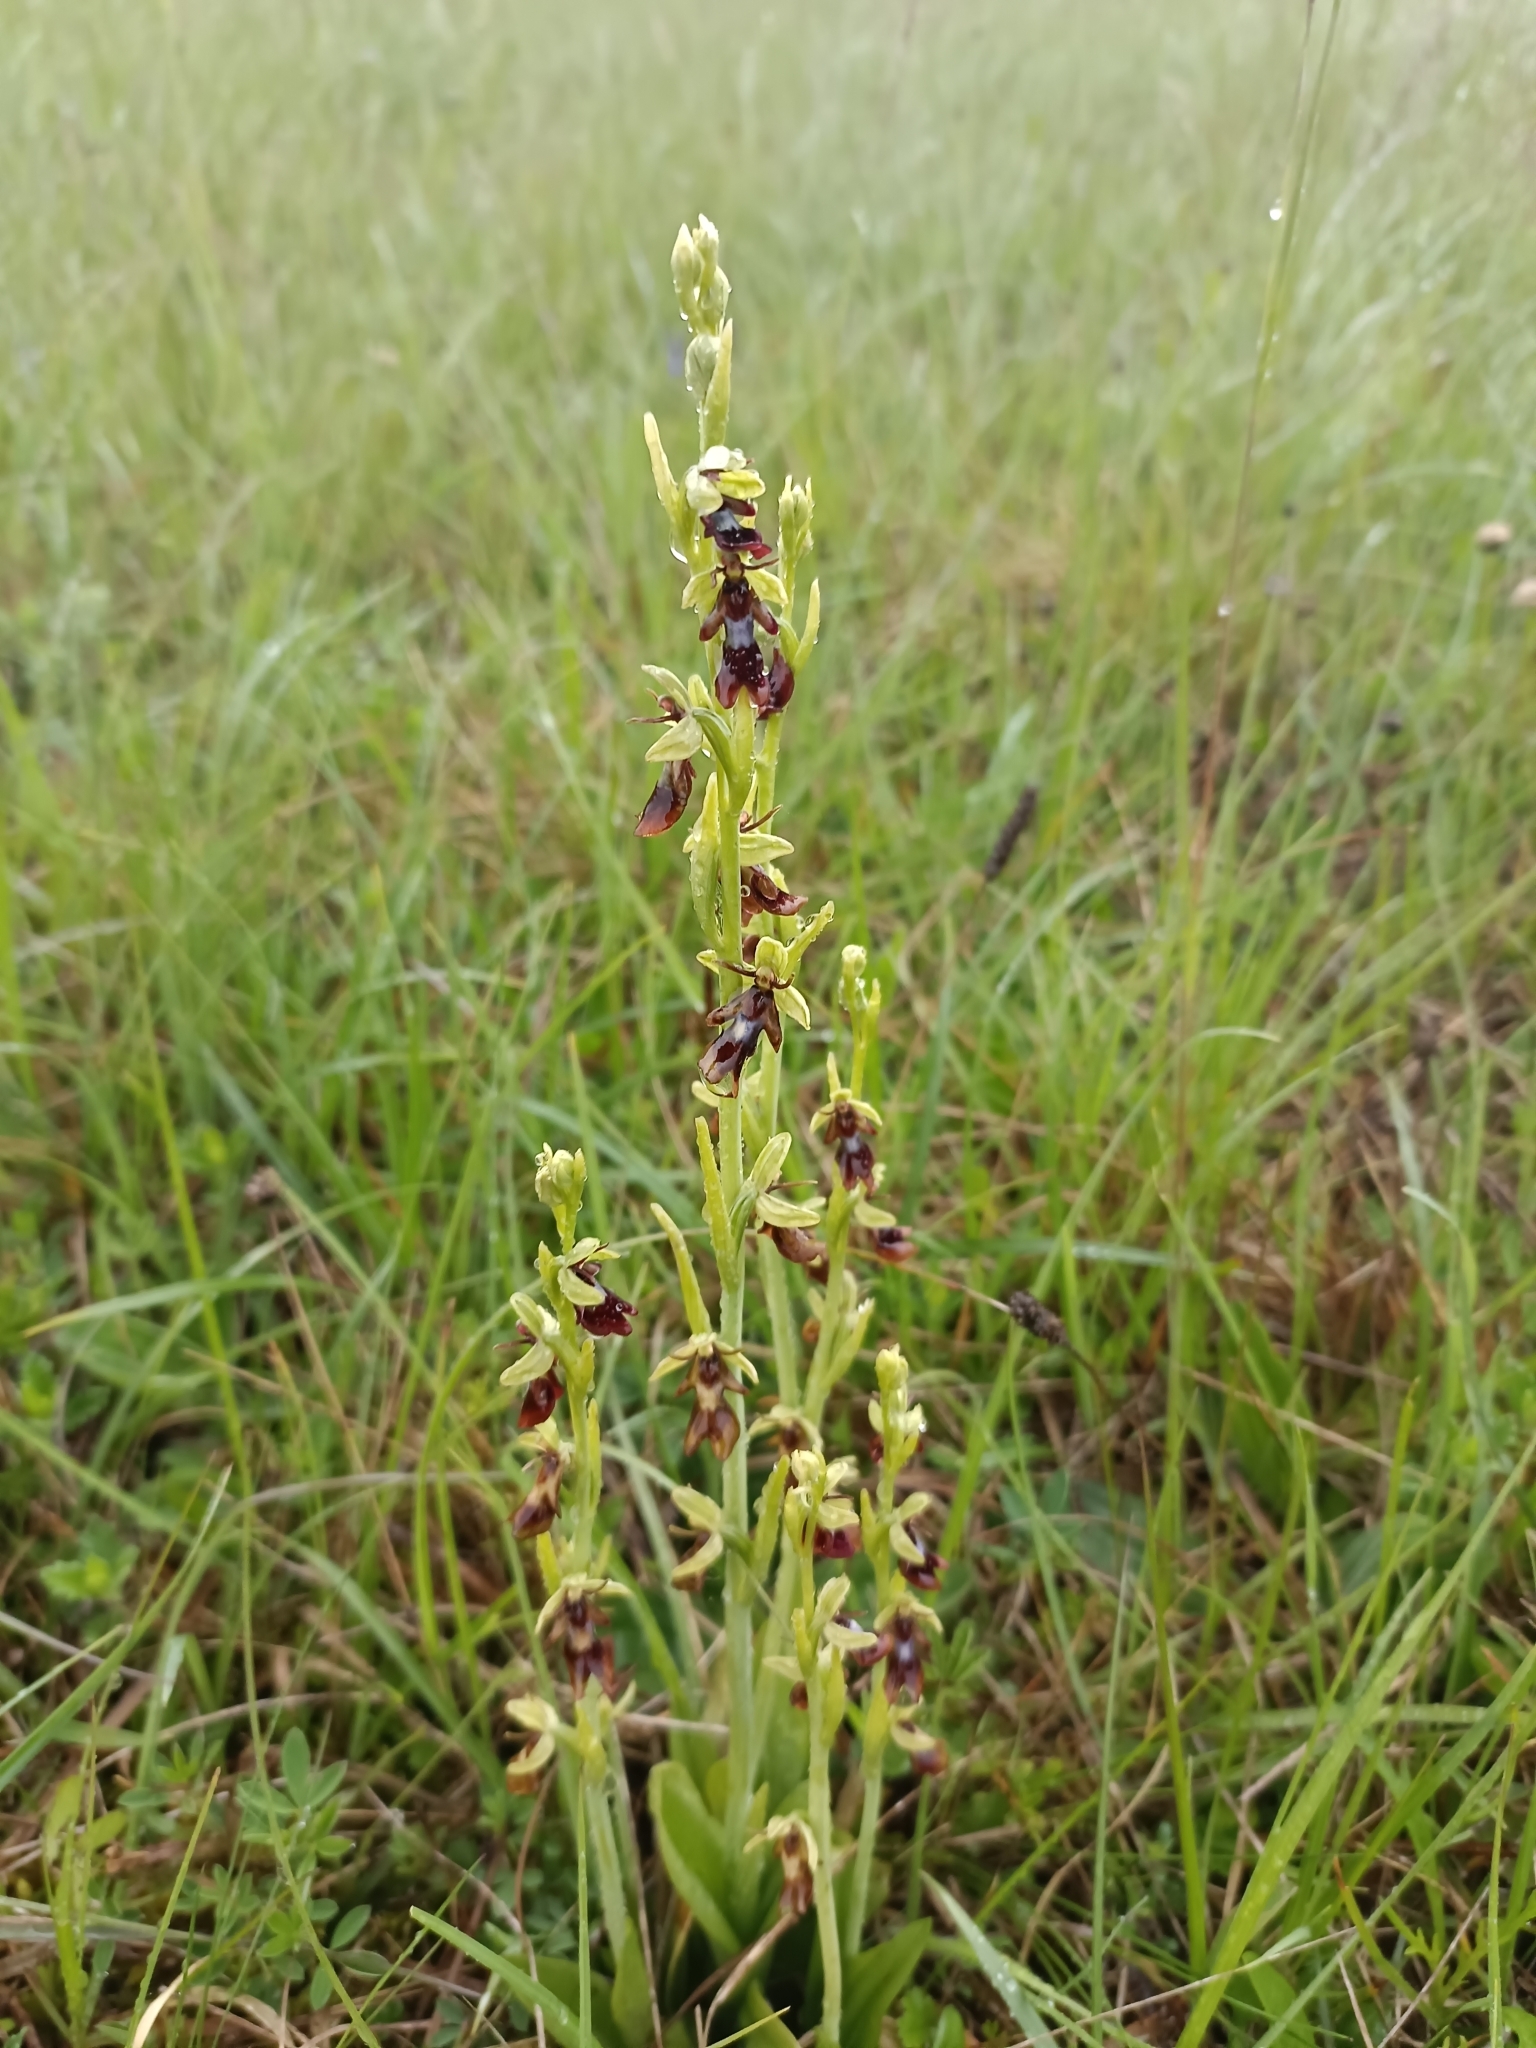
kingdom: Plantae
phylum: Tracheophyta
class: Liliopsida
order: Asparagales
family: Orchidaceae
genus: Ophrys
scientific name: Ophrys insectifera
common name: Fly orchid
